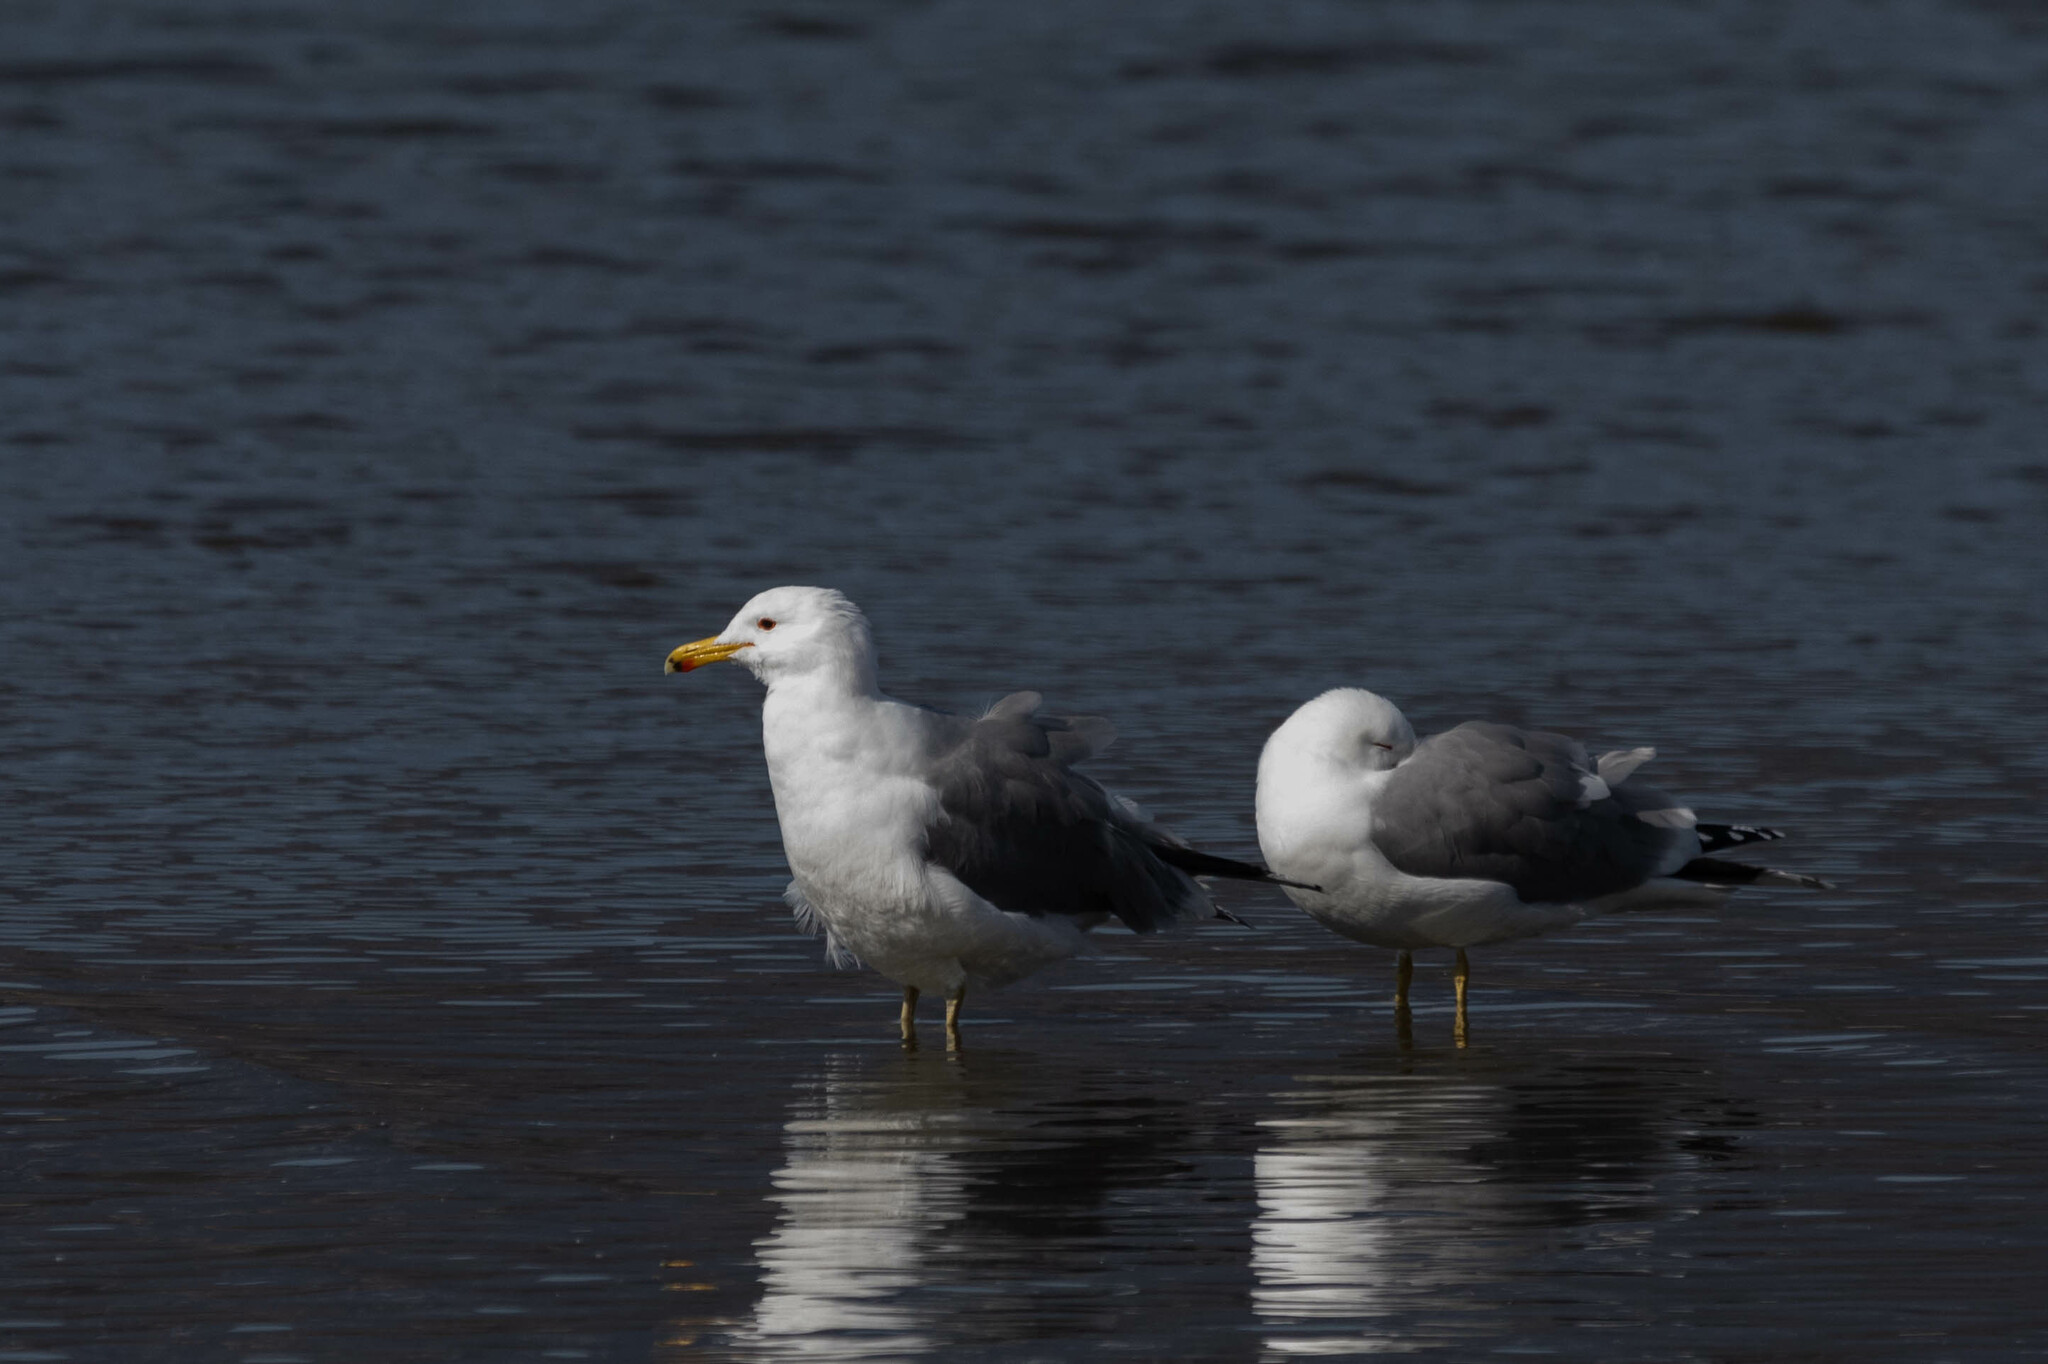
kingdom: Animalia
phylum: Chordata
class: Aves
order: Charadriiformes
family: Laridae
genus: Larus
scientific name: Larus californicus
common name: California gull
